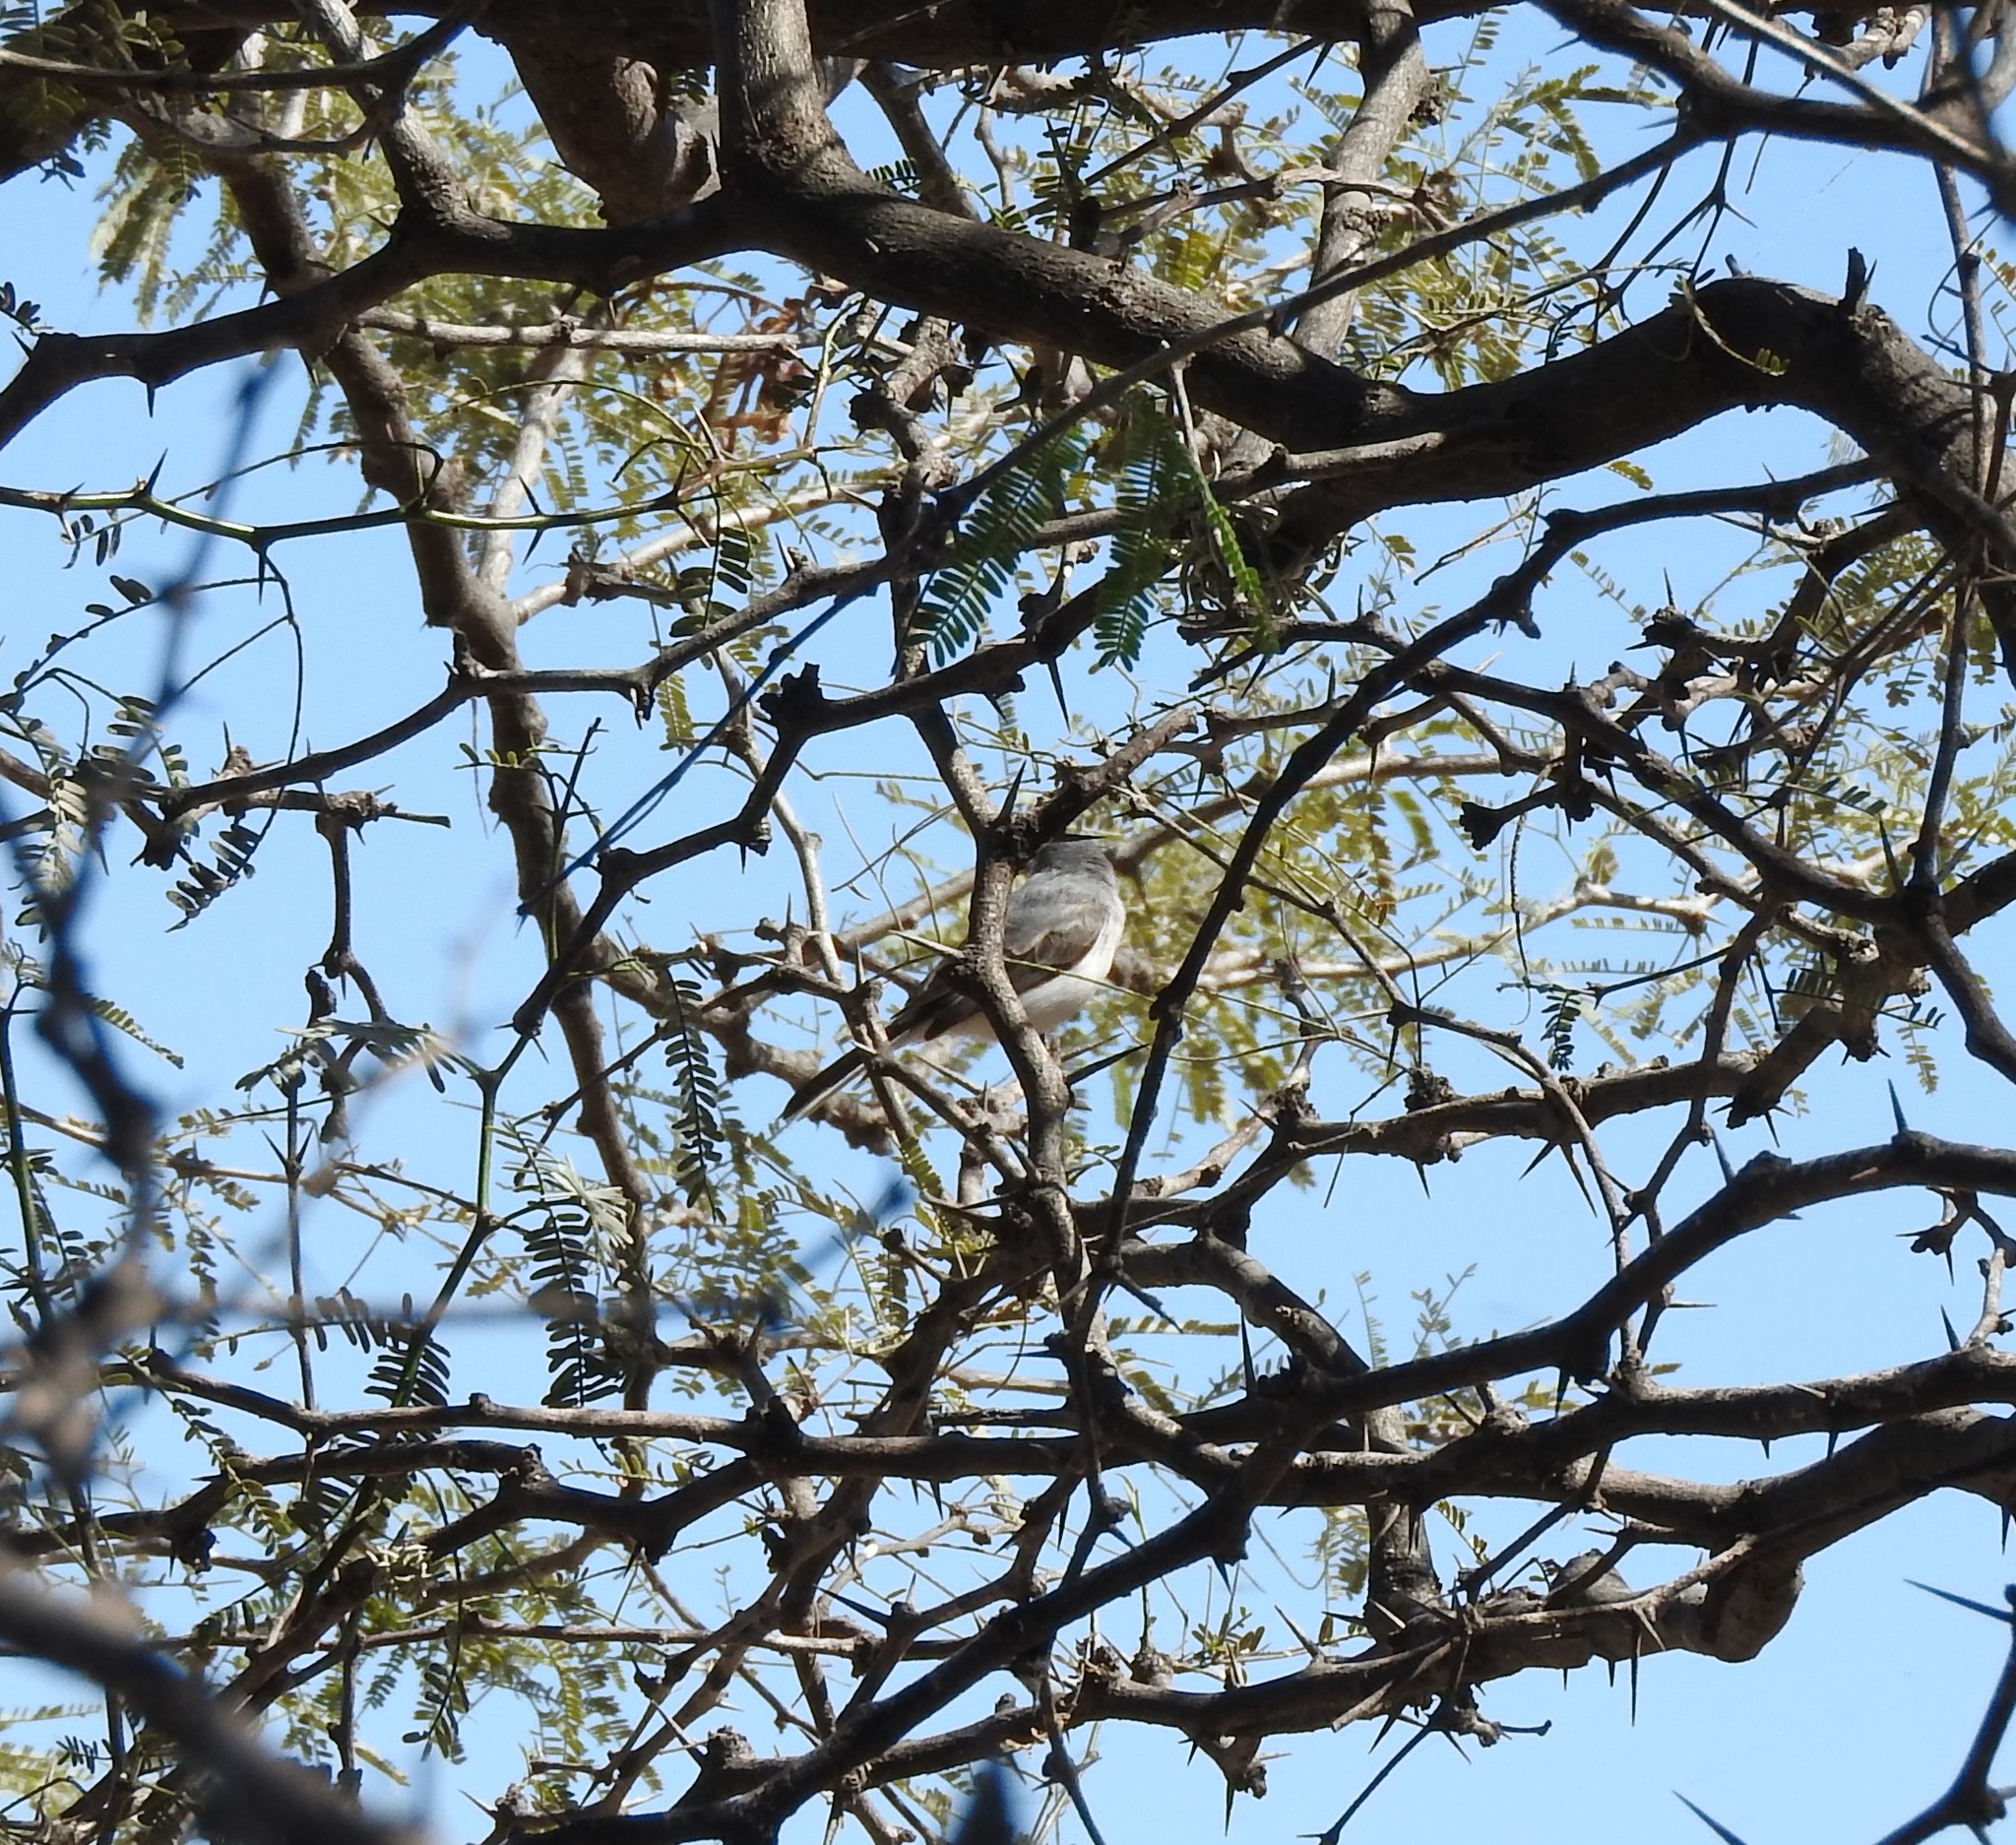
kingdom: Animalia
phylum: Chordata
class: Aves
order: Passeriformes
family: Laniidae
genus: Lanius
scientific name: Lanius ludovicianus
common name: Loggerhead shrike
